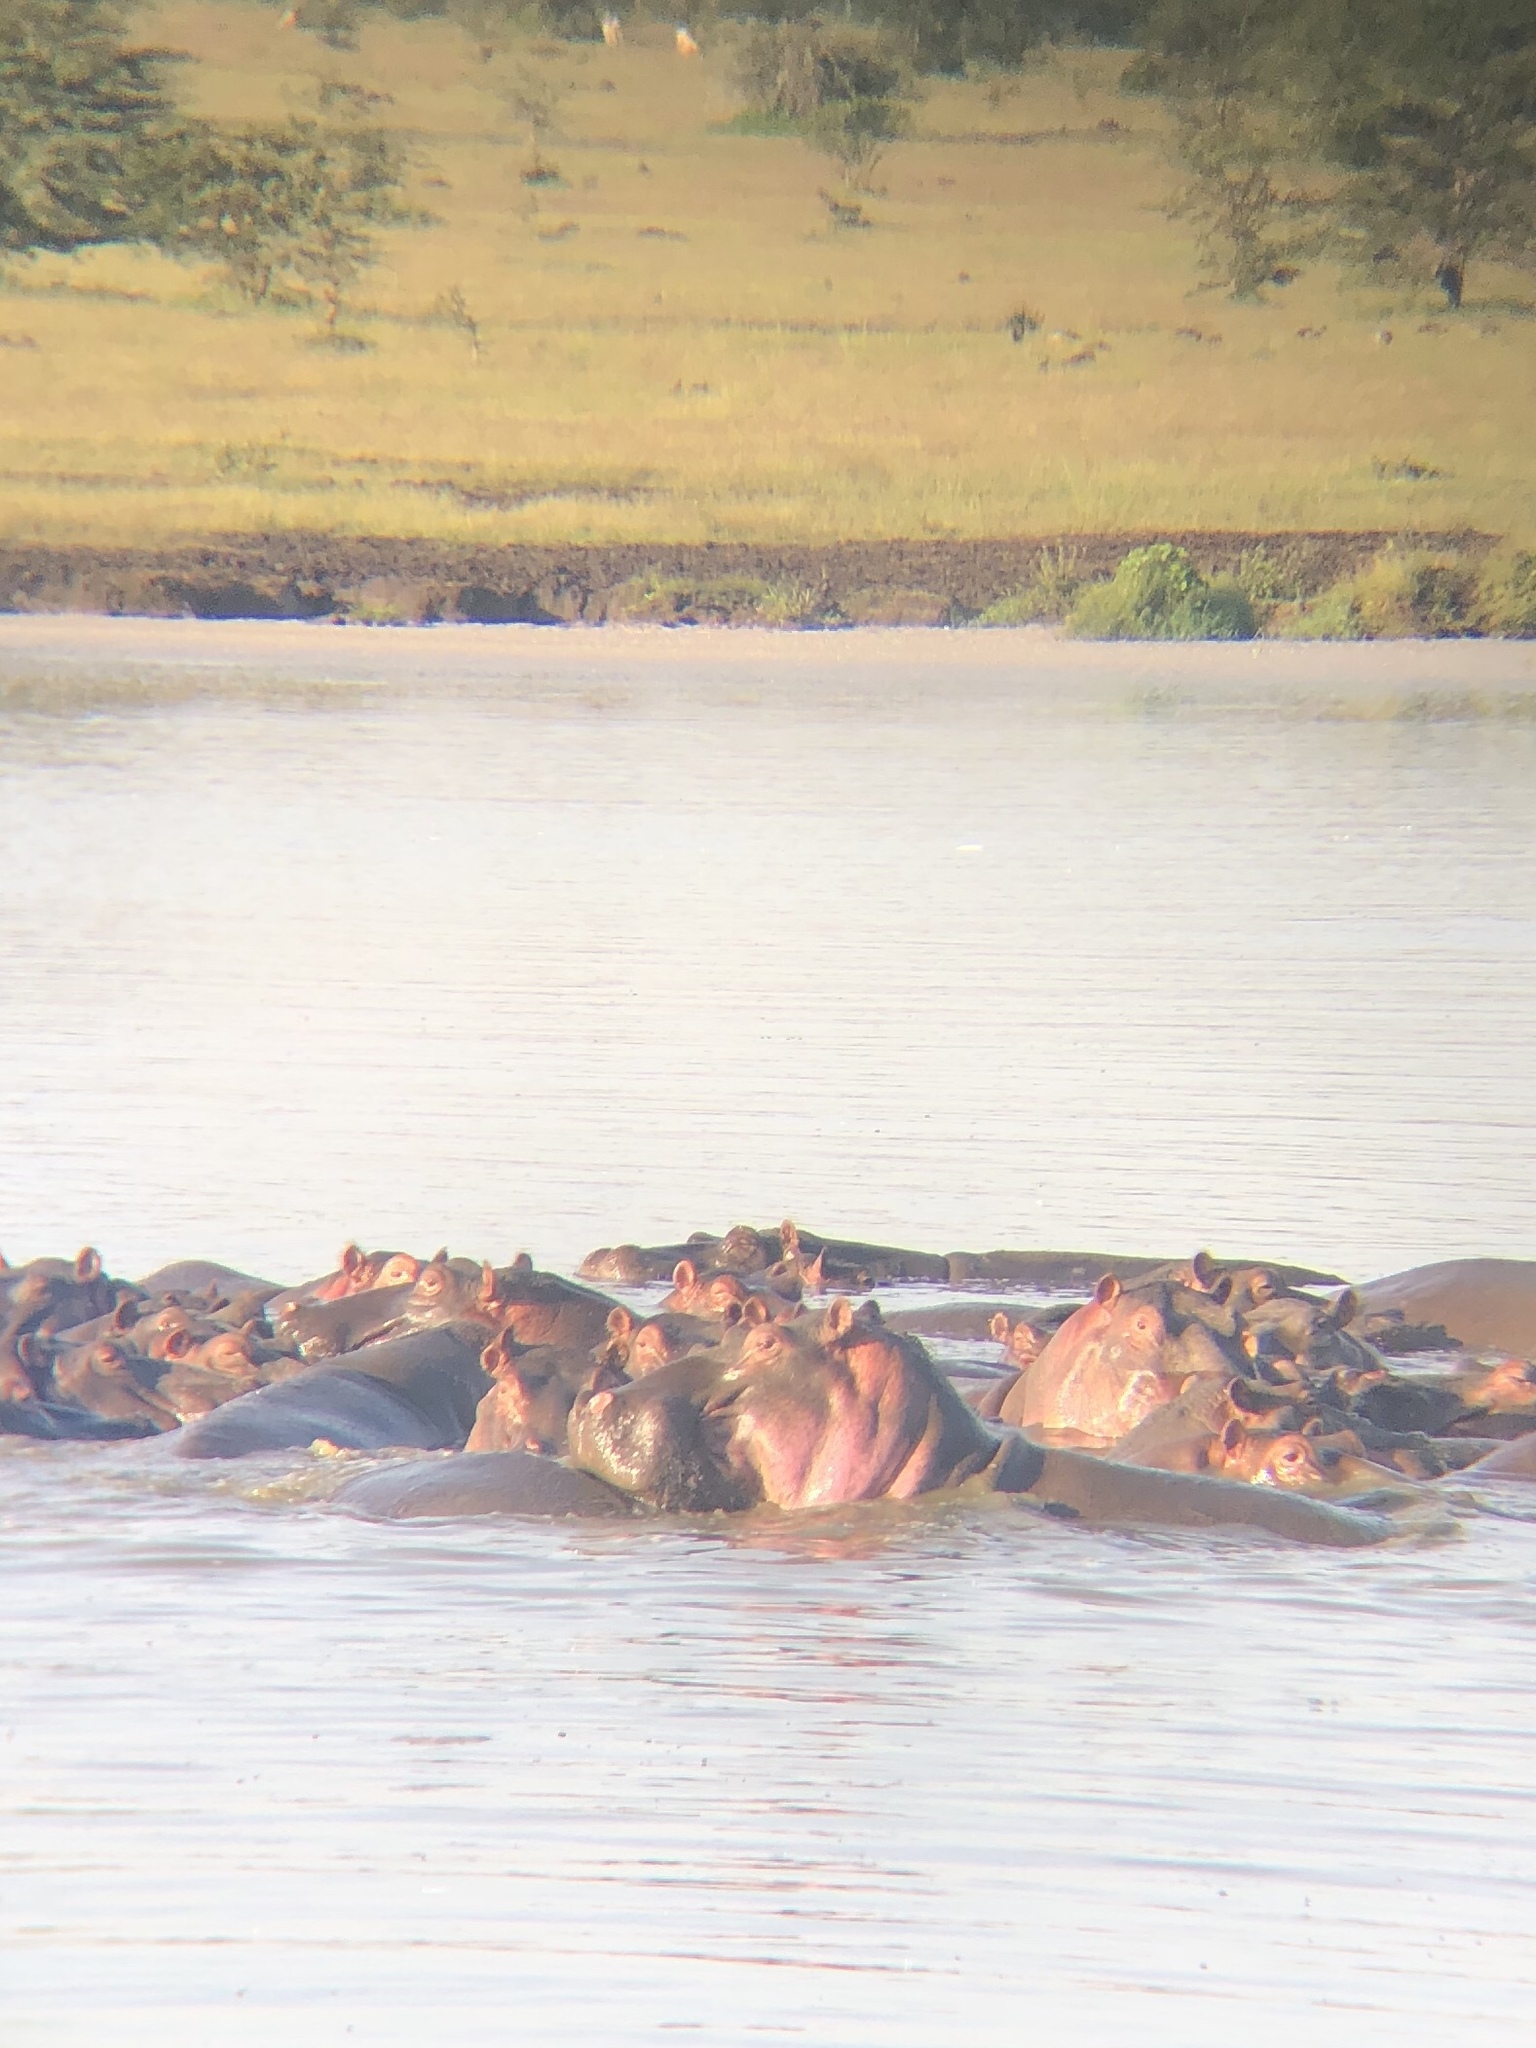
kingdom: Animalia
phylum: Chordata
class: Mammalia
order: Artiodactyla
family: Hippopotamidae
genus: Hippopotamus
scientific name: Hippopotamus amphibius
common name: Common hippopotamus
